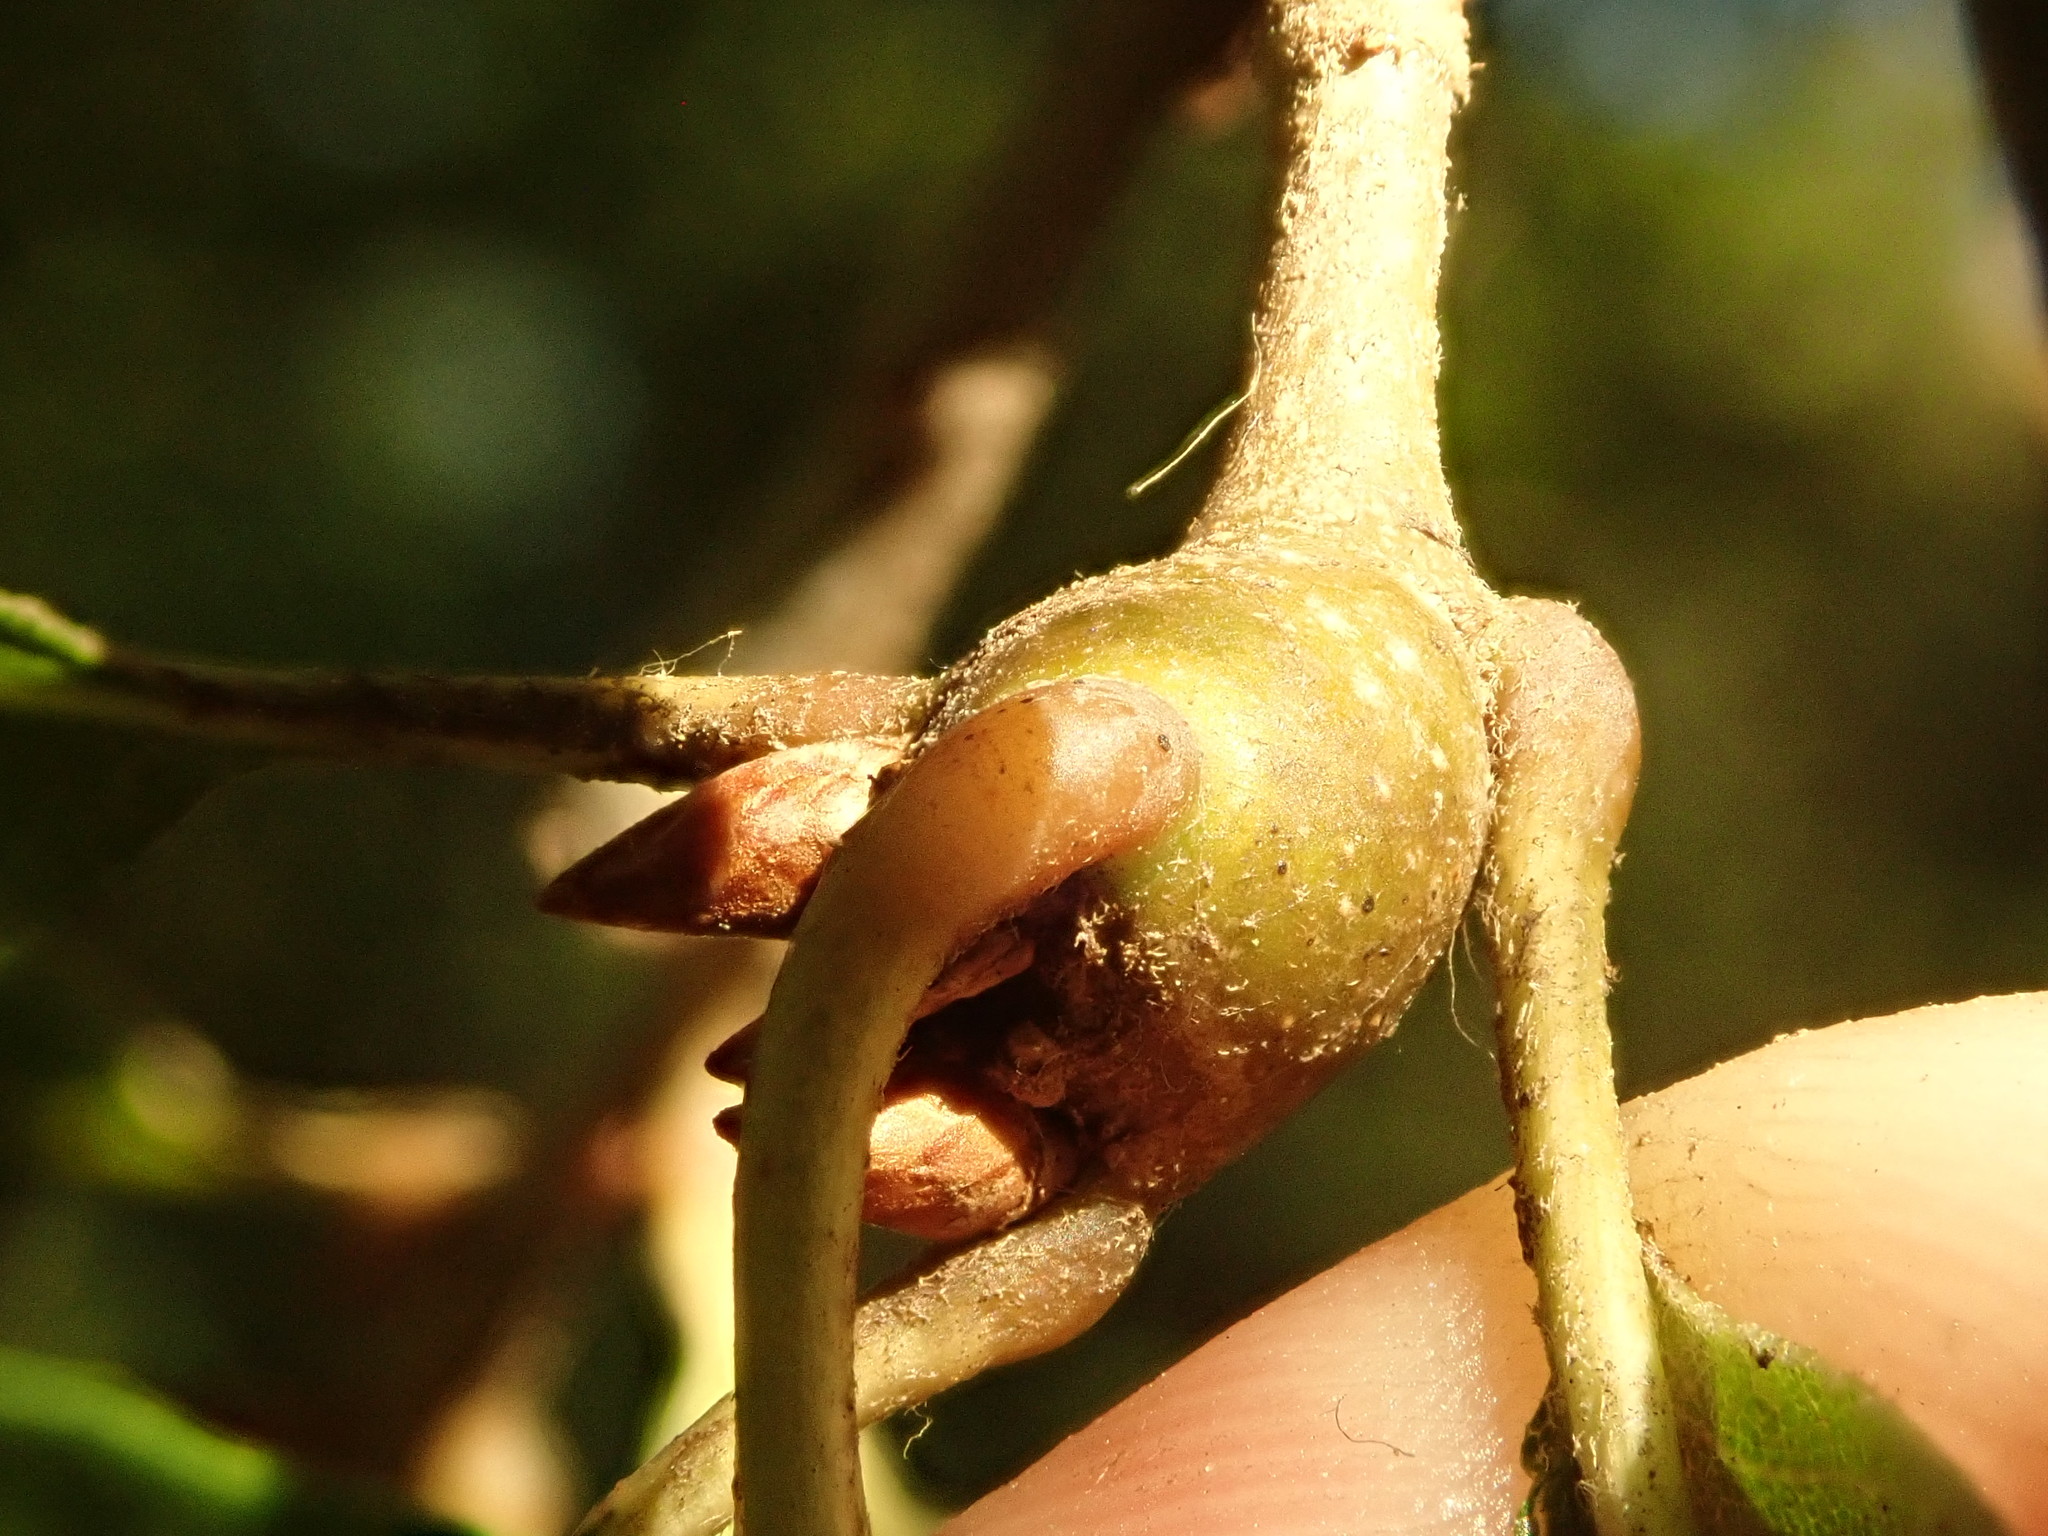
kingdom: Animalia
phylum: Arthropoda
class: Insecta
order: Hymenoptera
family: Cynipidae
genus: Zapatella
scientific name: Zapatella quercusphellos
